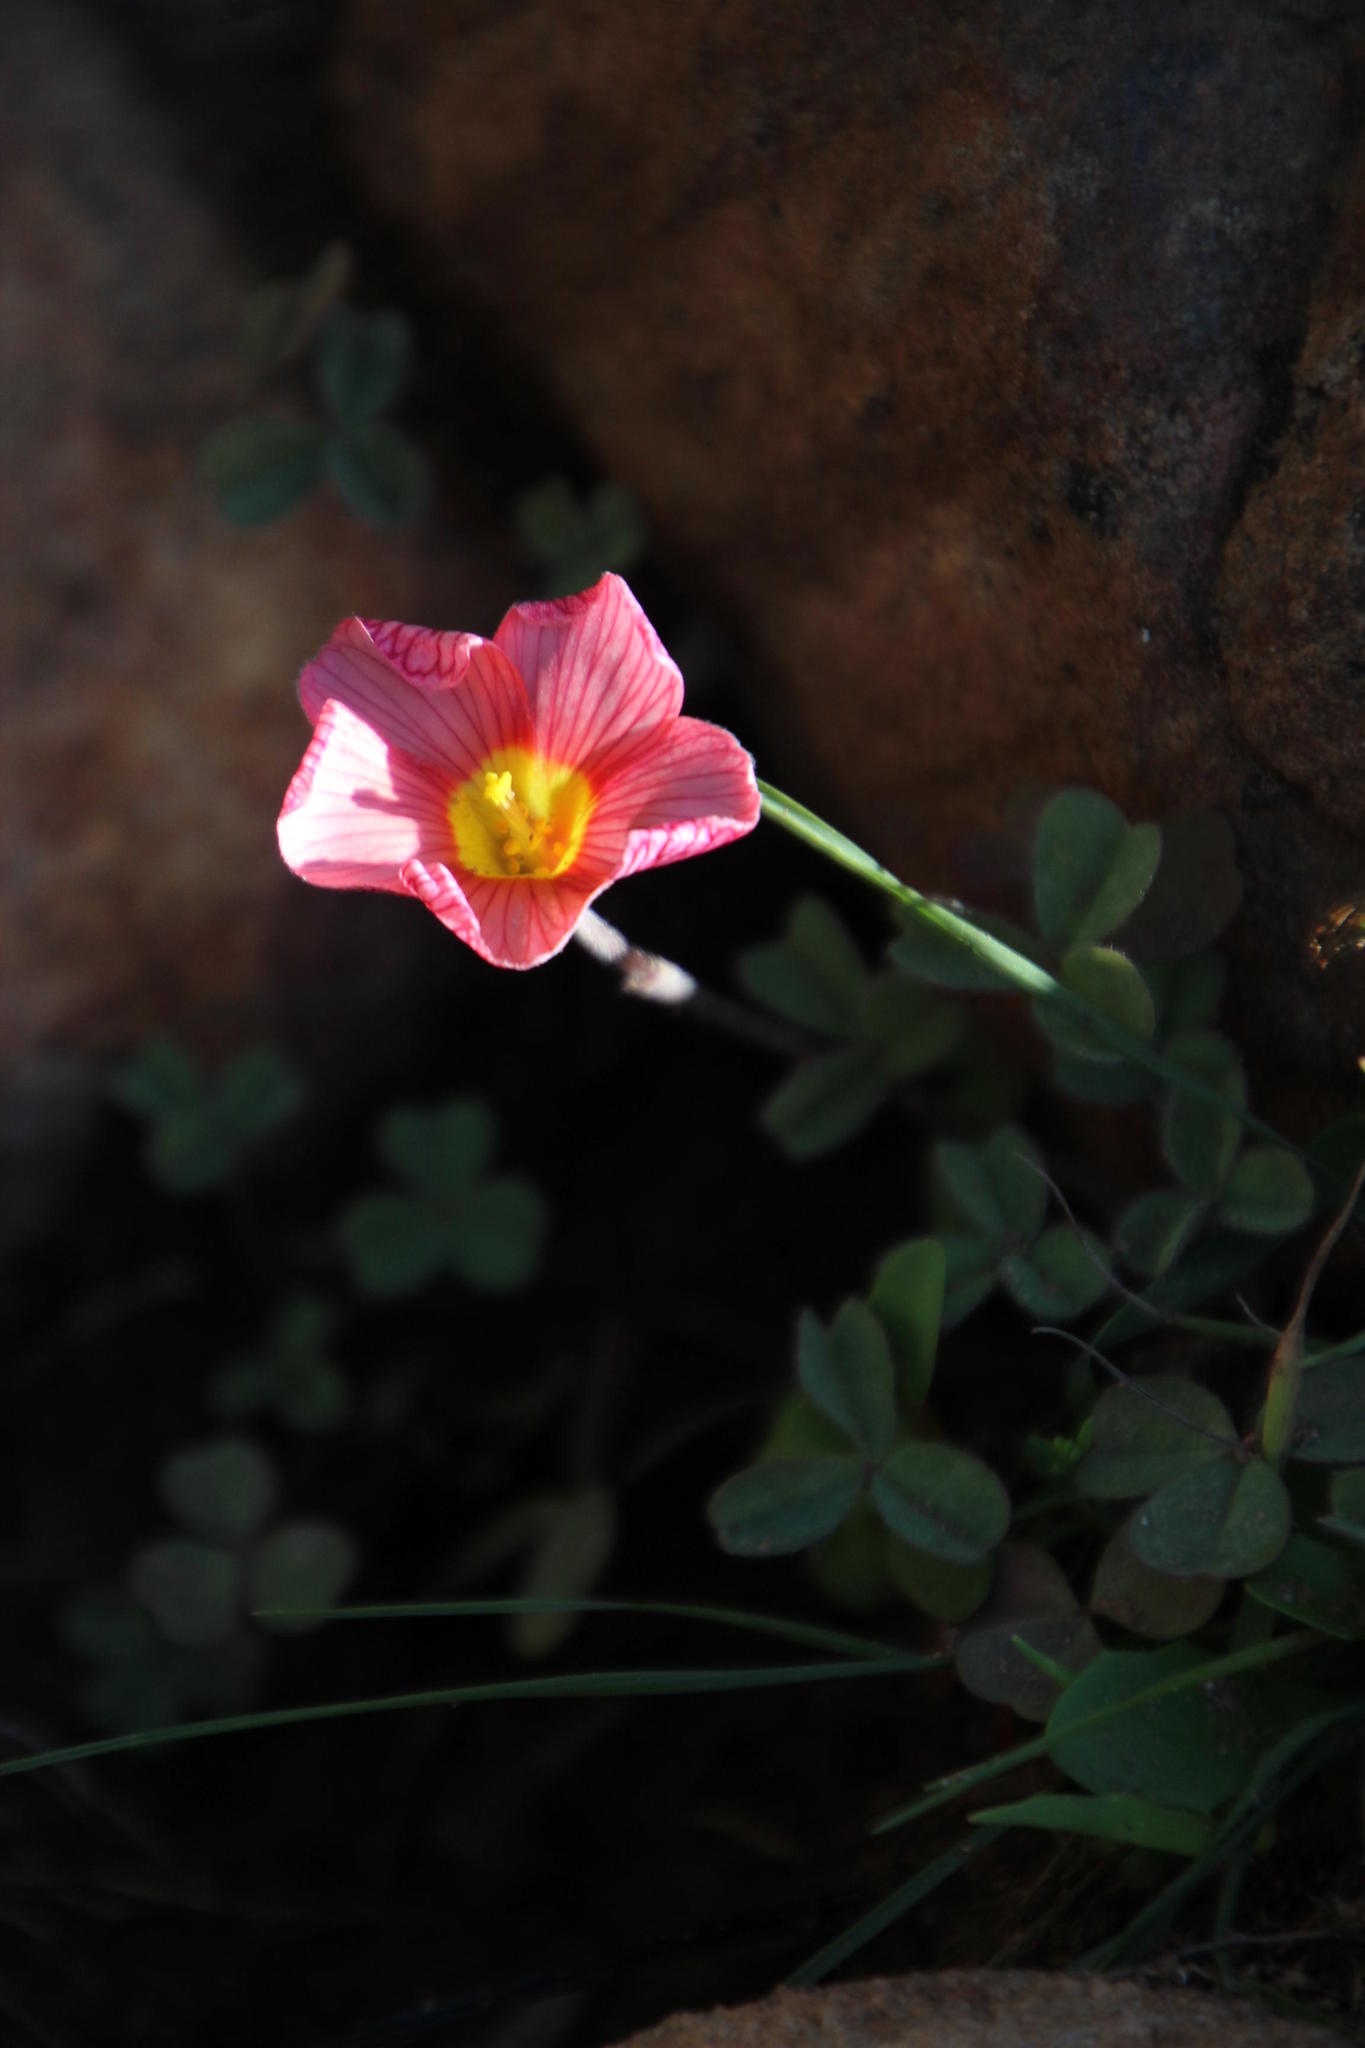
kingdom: Plantae
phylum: Tracheophyta
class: Magnoliopsida
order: Oxalidales
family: Oxalidaceae
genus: Oxalis
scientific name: Oxalis obtusa
